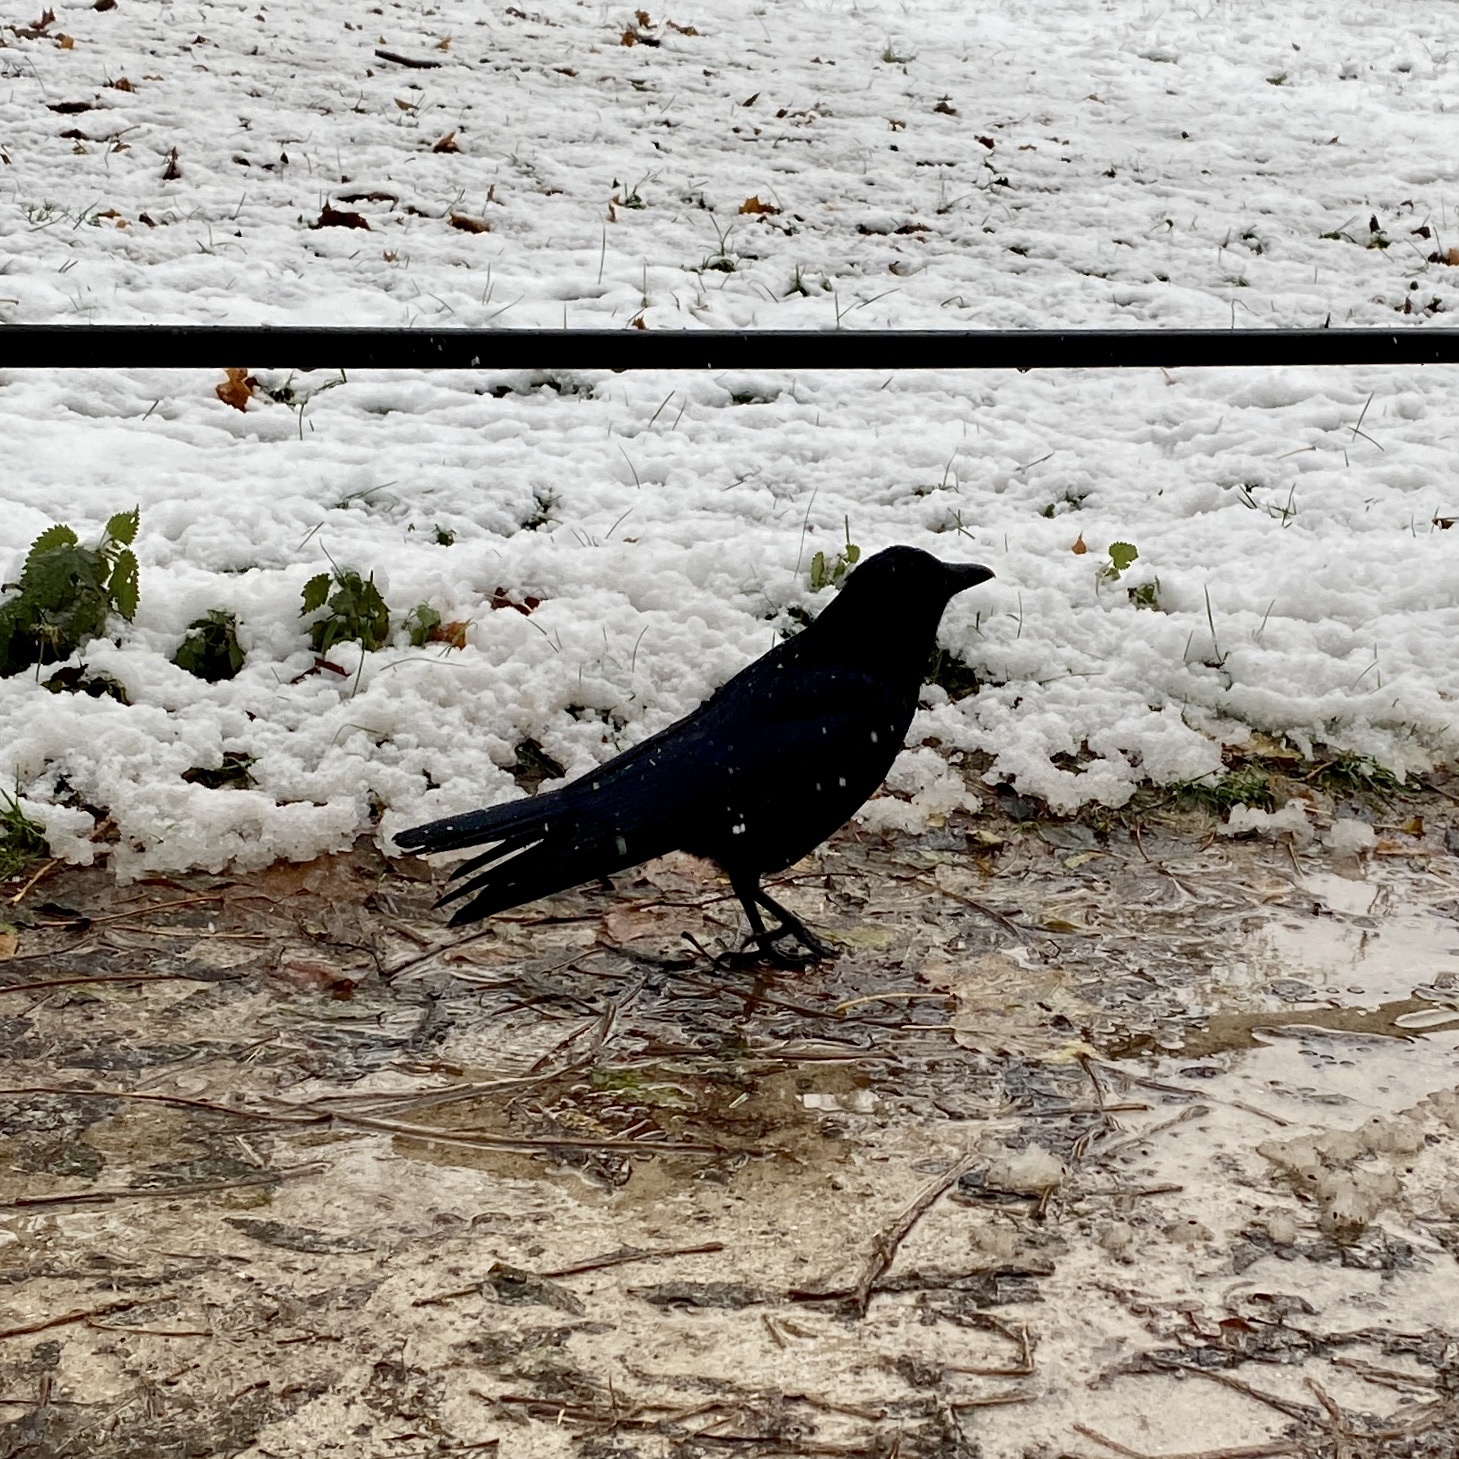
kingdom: Animalia
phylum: Chordata
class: Aves
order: Passeriformes
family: Corvidae
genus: Corvus
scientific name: Corvus corone
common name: Carrion crow
